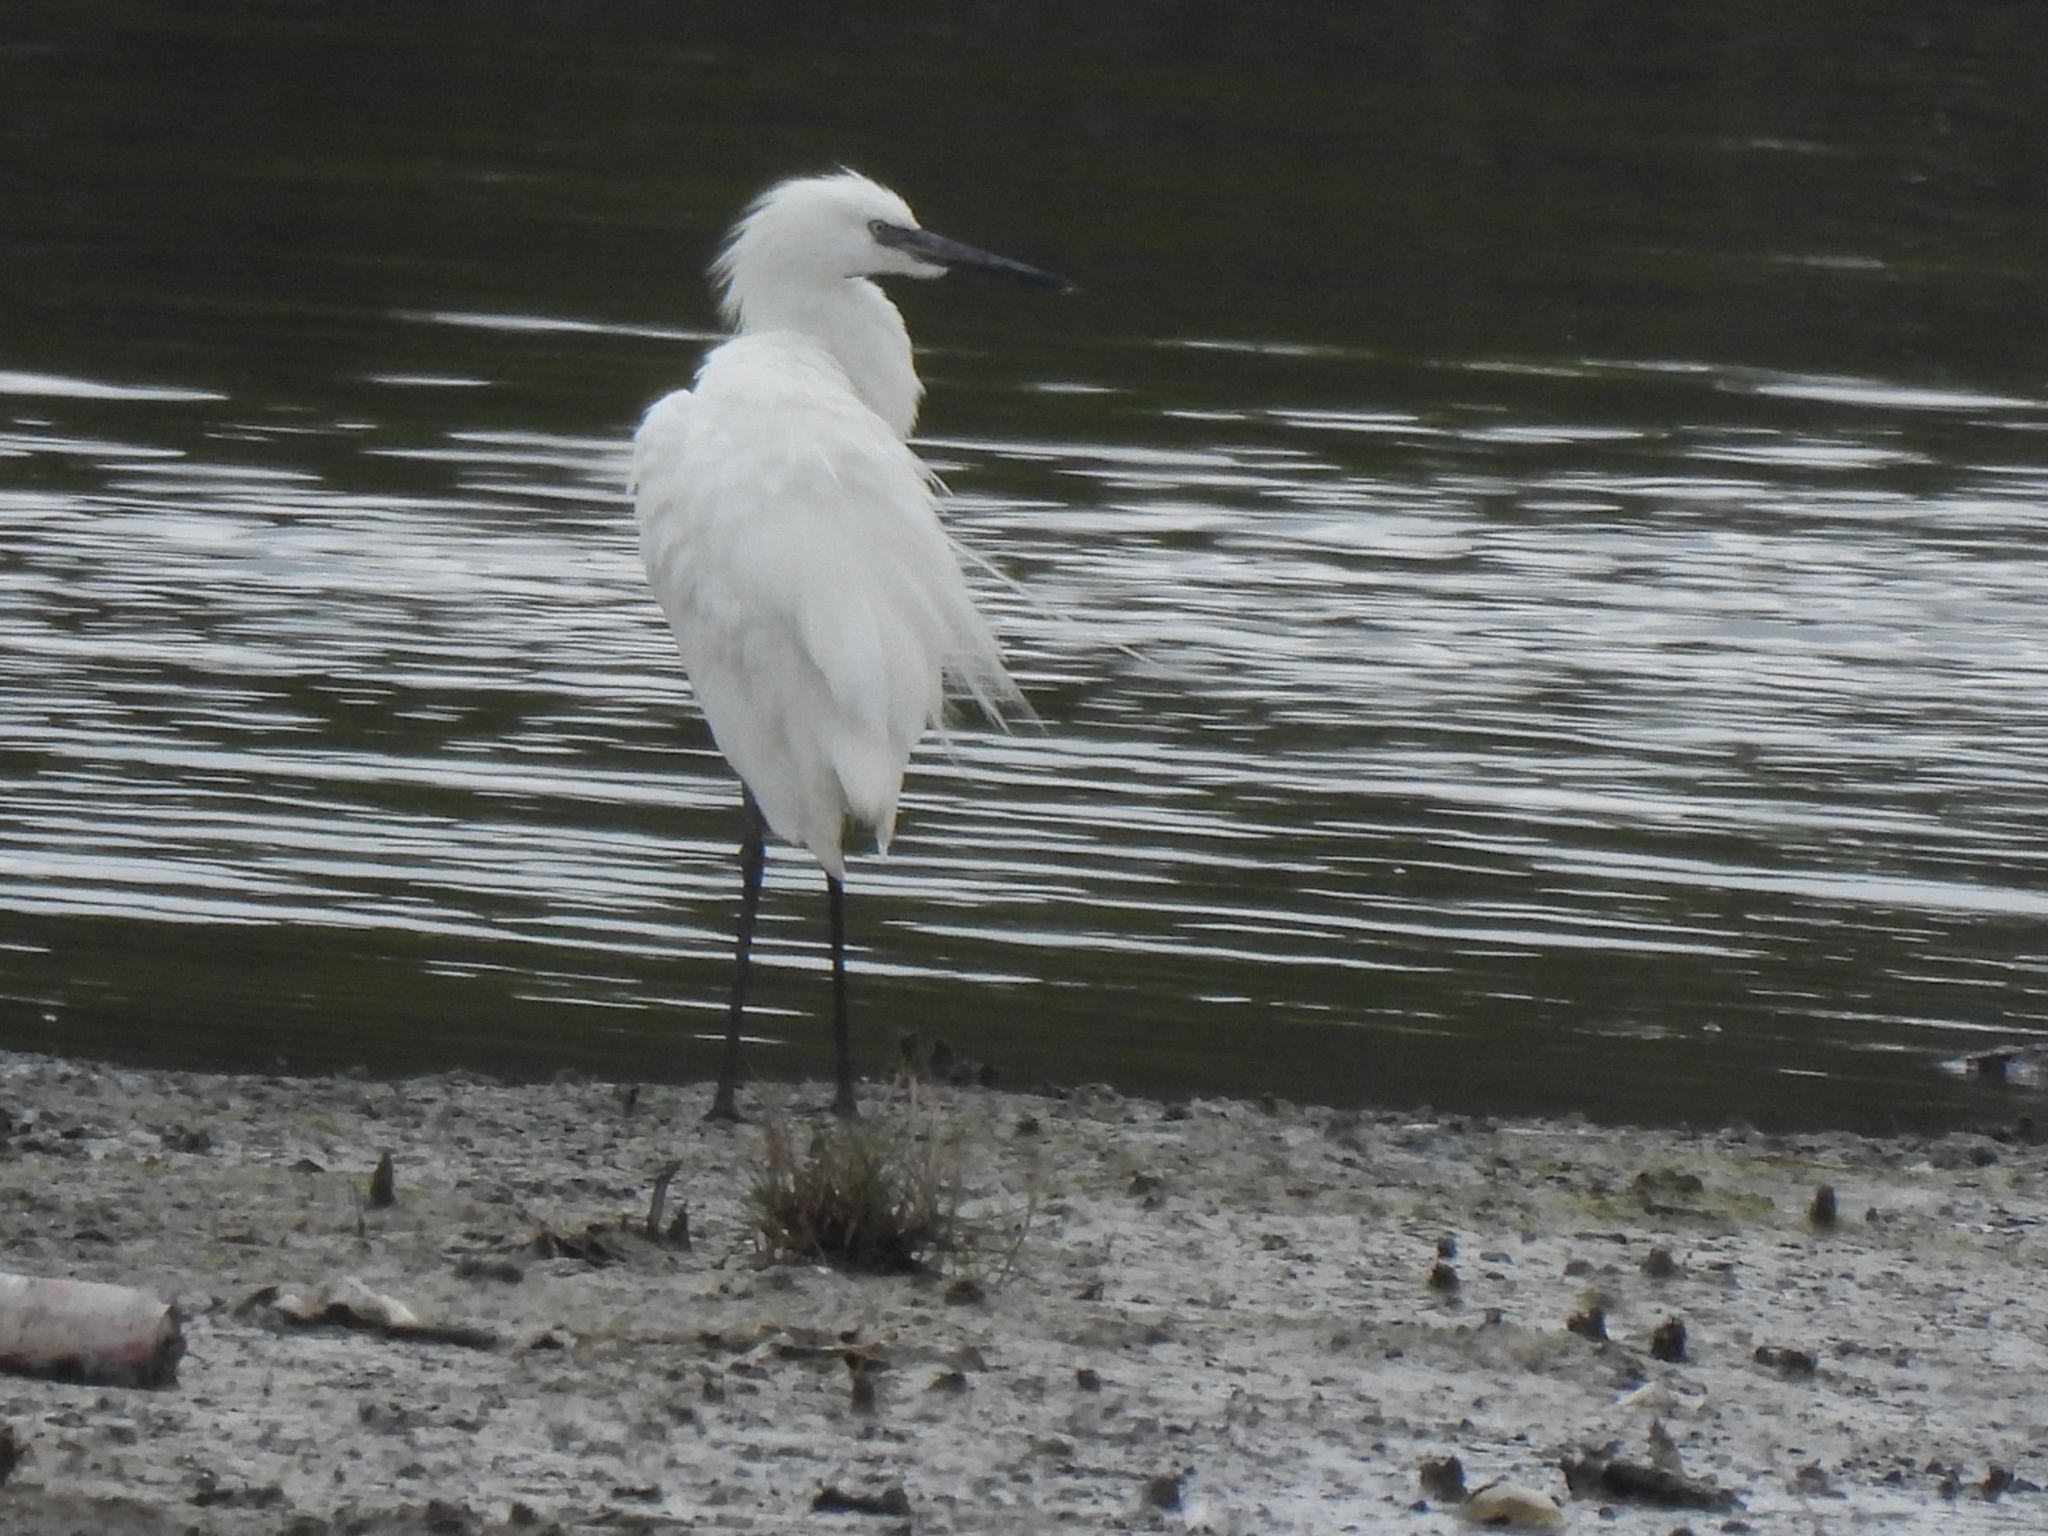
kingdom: Animalia
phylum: Chordata
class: Aves
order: Pelecaniformes
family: Ardeidae
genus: Egretta
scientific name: Egretta rufescens
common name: Reddish egret
